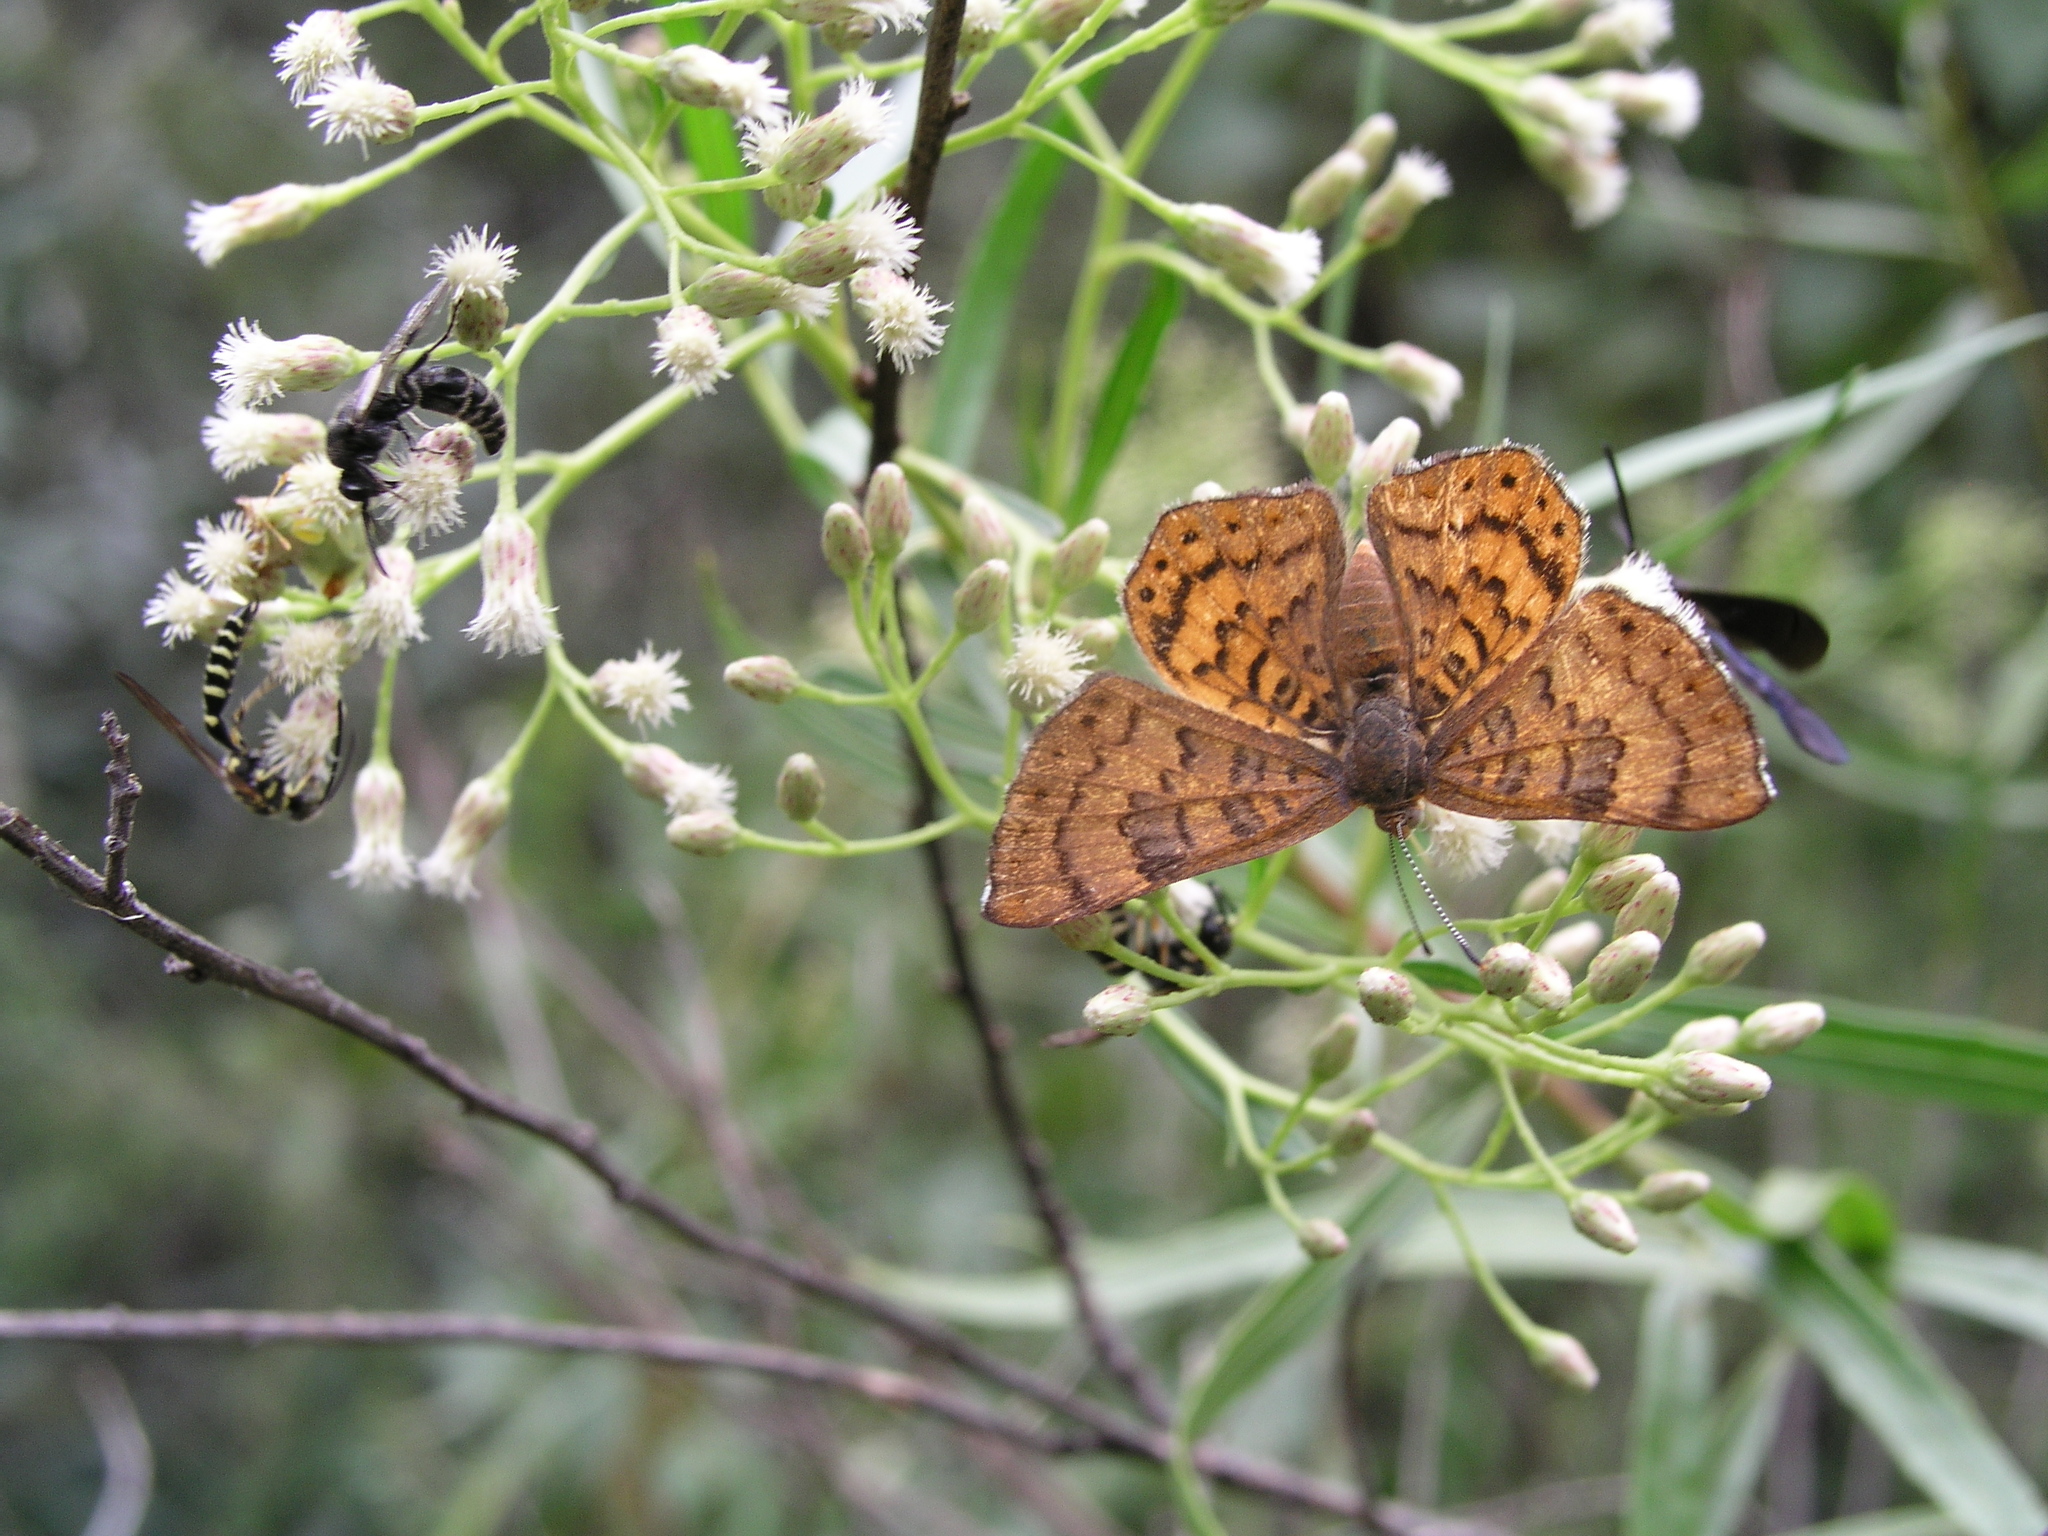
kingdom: Animalia
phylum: Arthropoda
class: Insecta
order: Lepidoptera
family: Riodinidae
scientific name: Riodinidae
